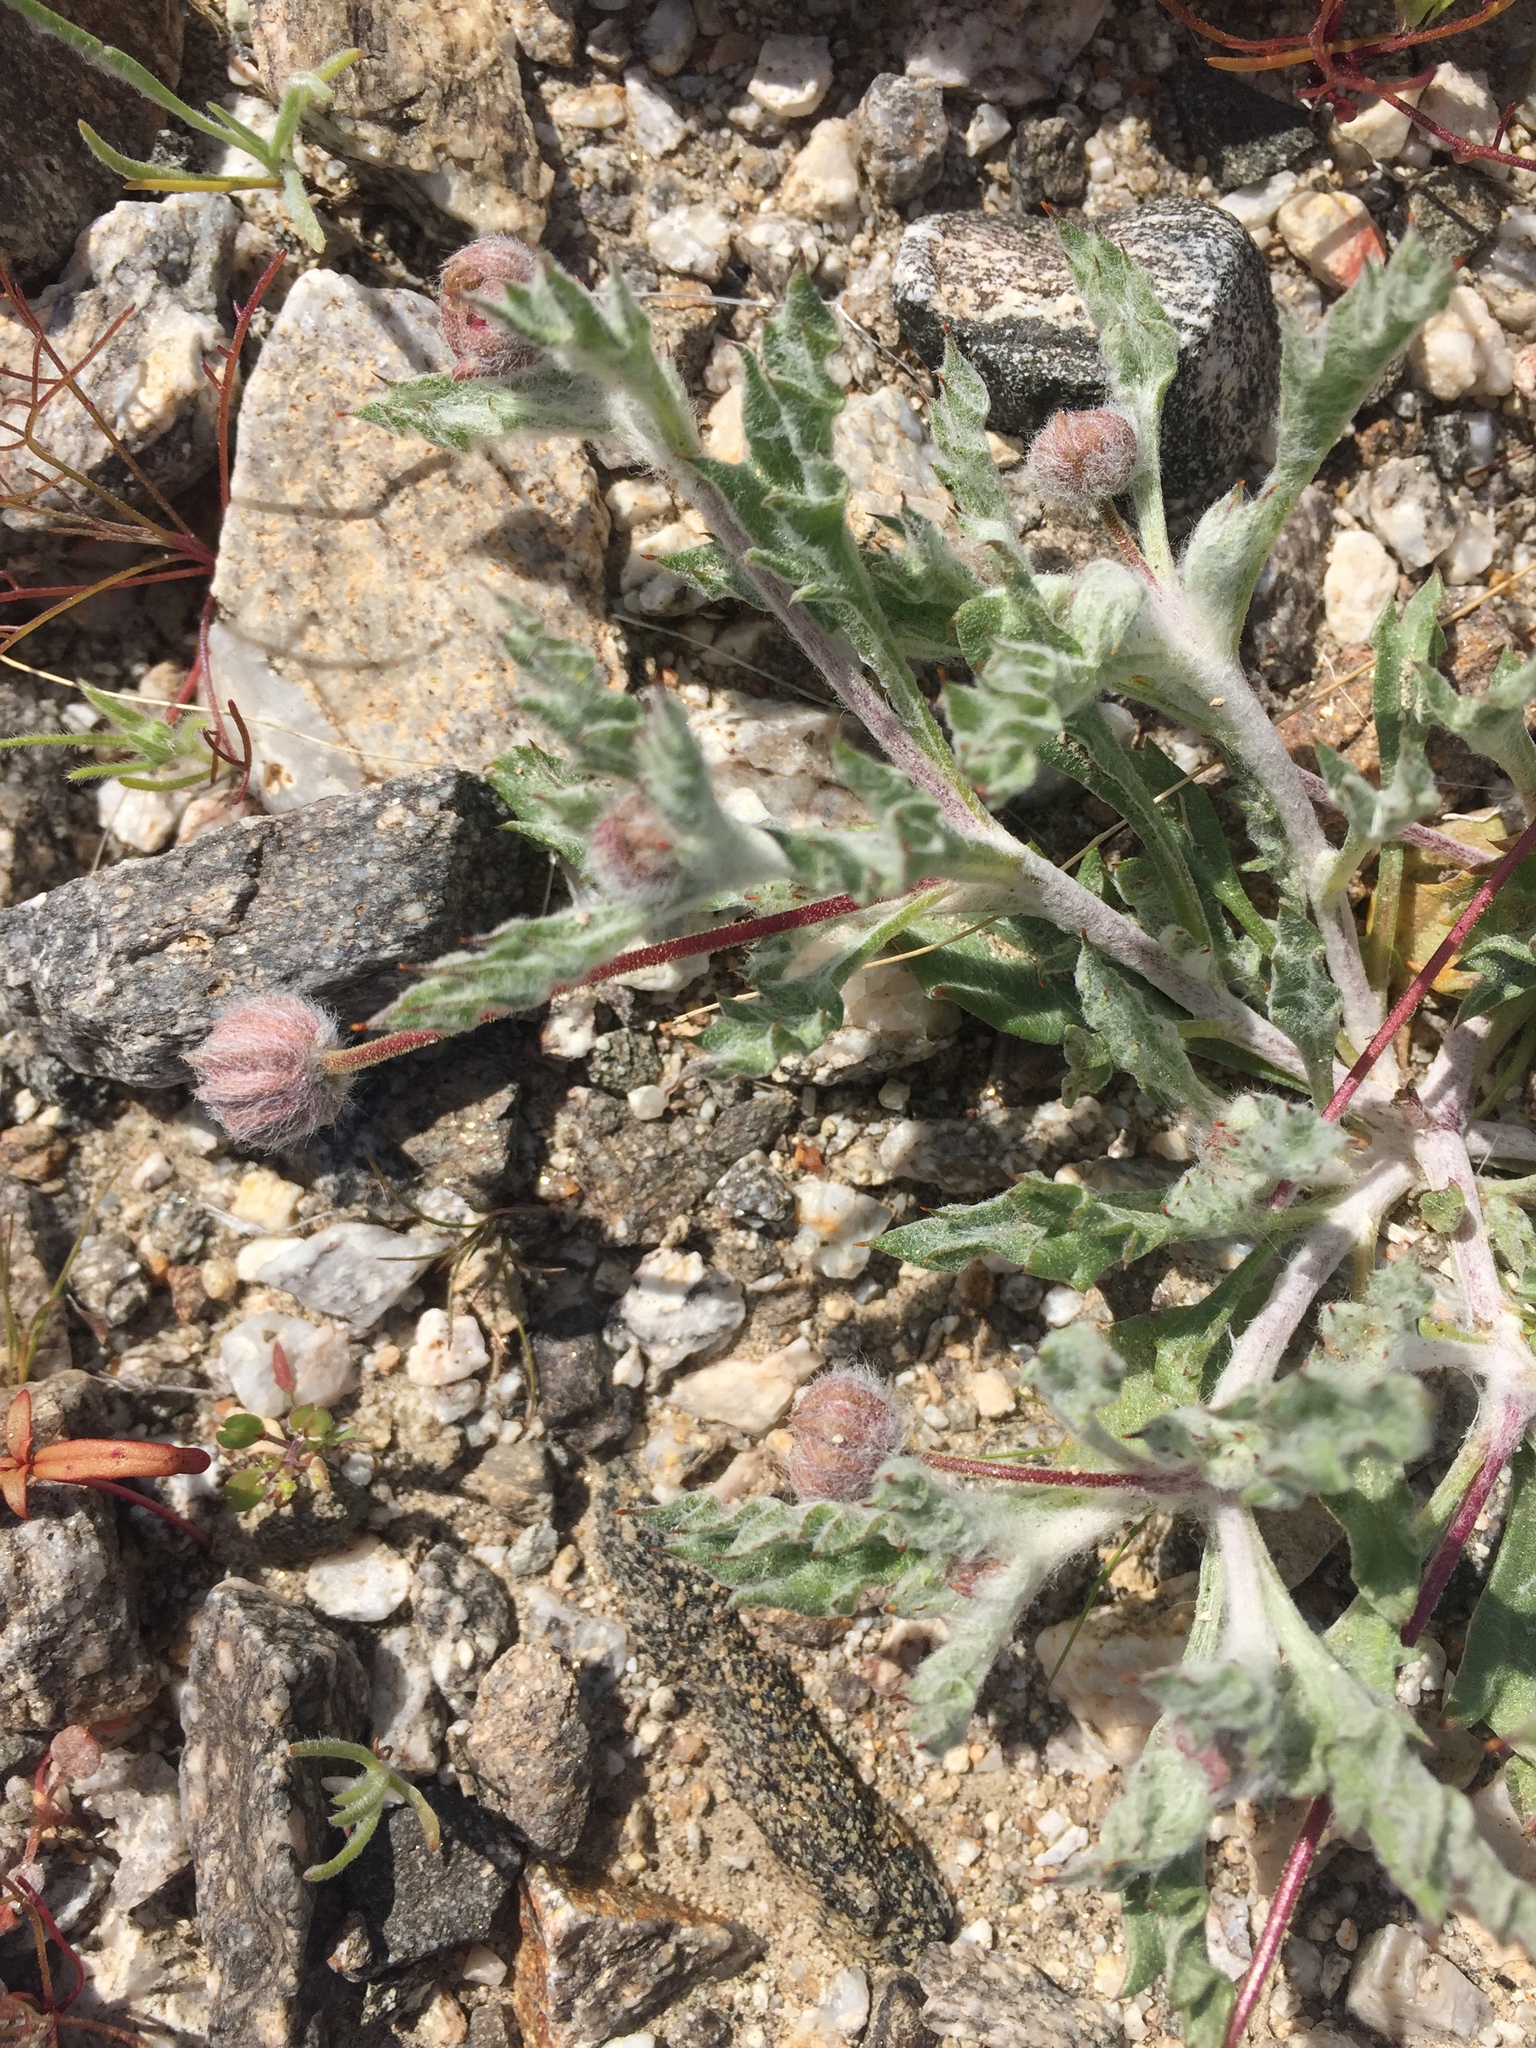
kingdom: Plantae
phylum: Tracheophyta
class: Magnoliopsida
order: Asterales
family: Asteraceae
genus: Trichoptilium
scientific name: Trichoptilium incisum
